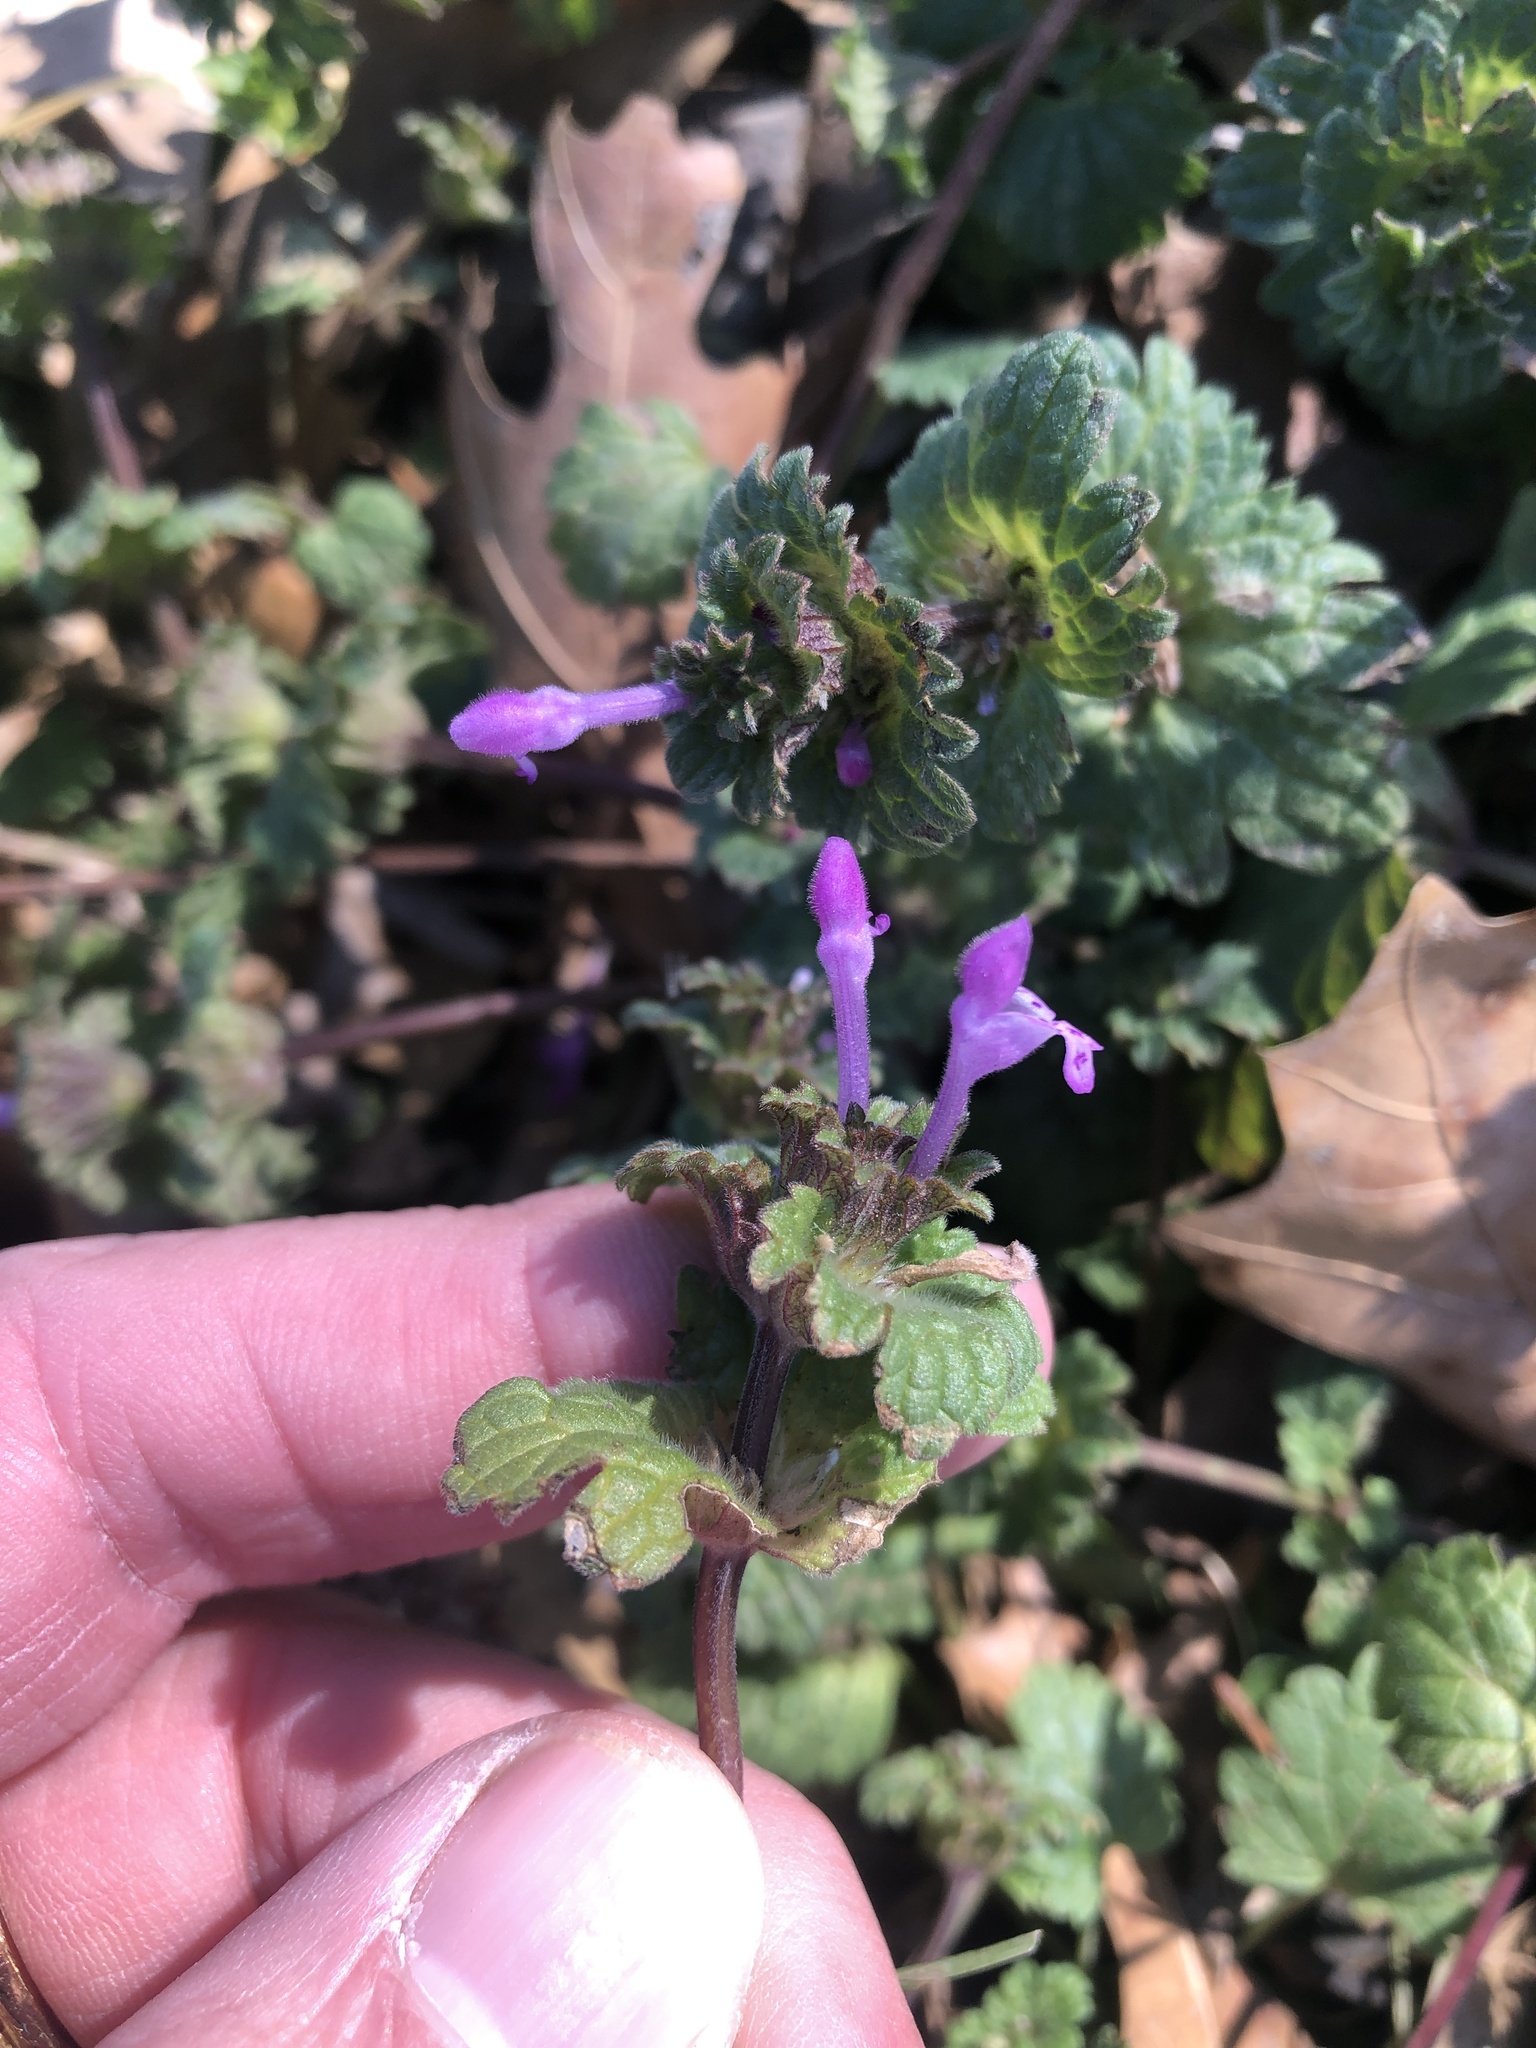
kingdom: Plantae
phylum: Tracheophyta
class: Magnoliopsida
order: Lamiales
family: Lamiaceae
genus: Lamium
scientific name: Lamium amplexicaule
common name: Henbit dead-nettle
